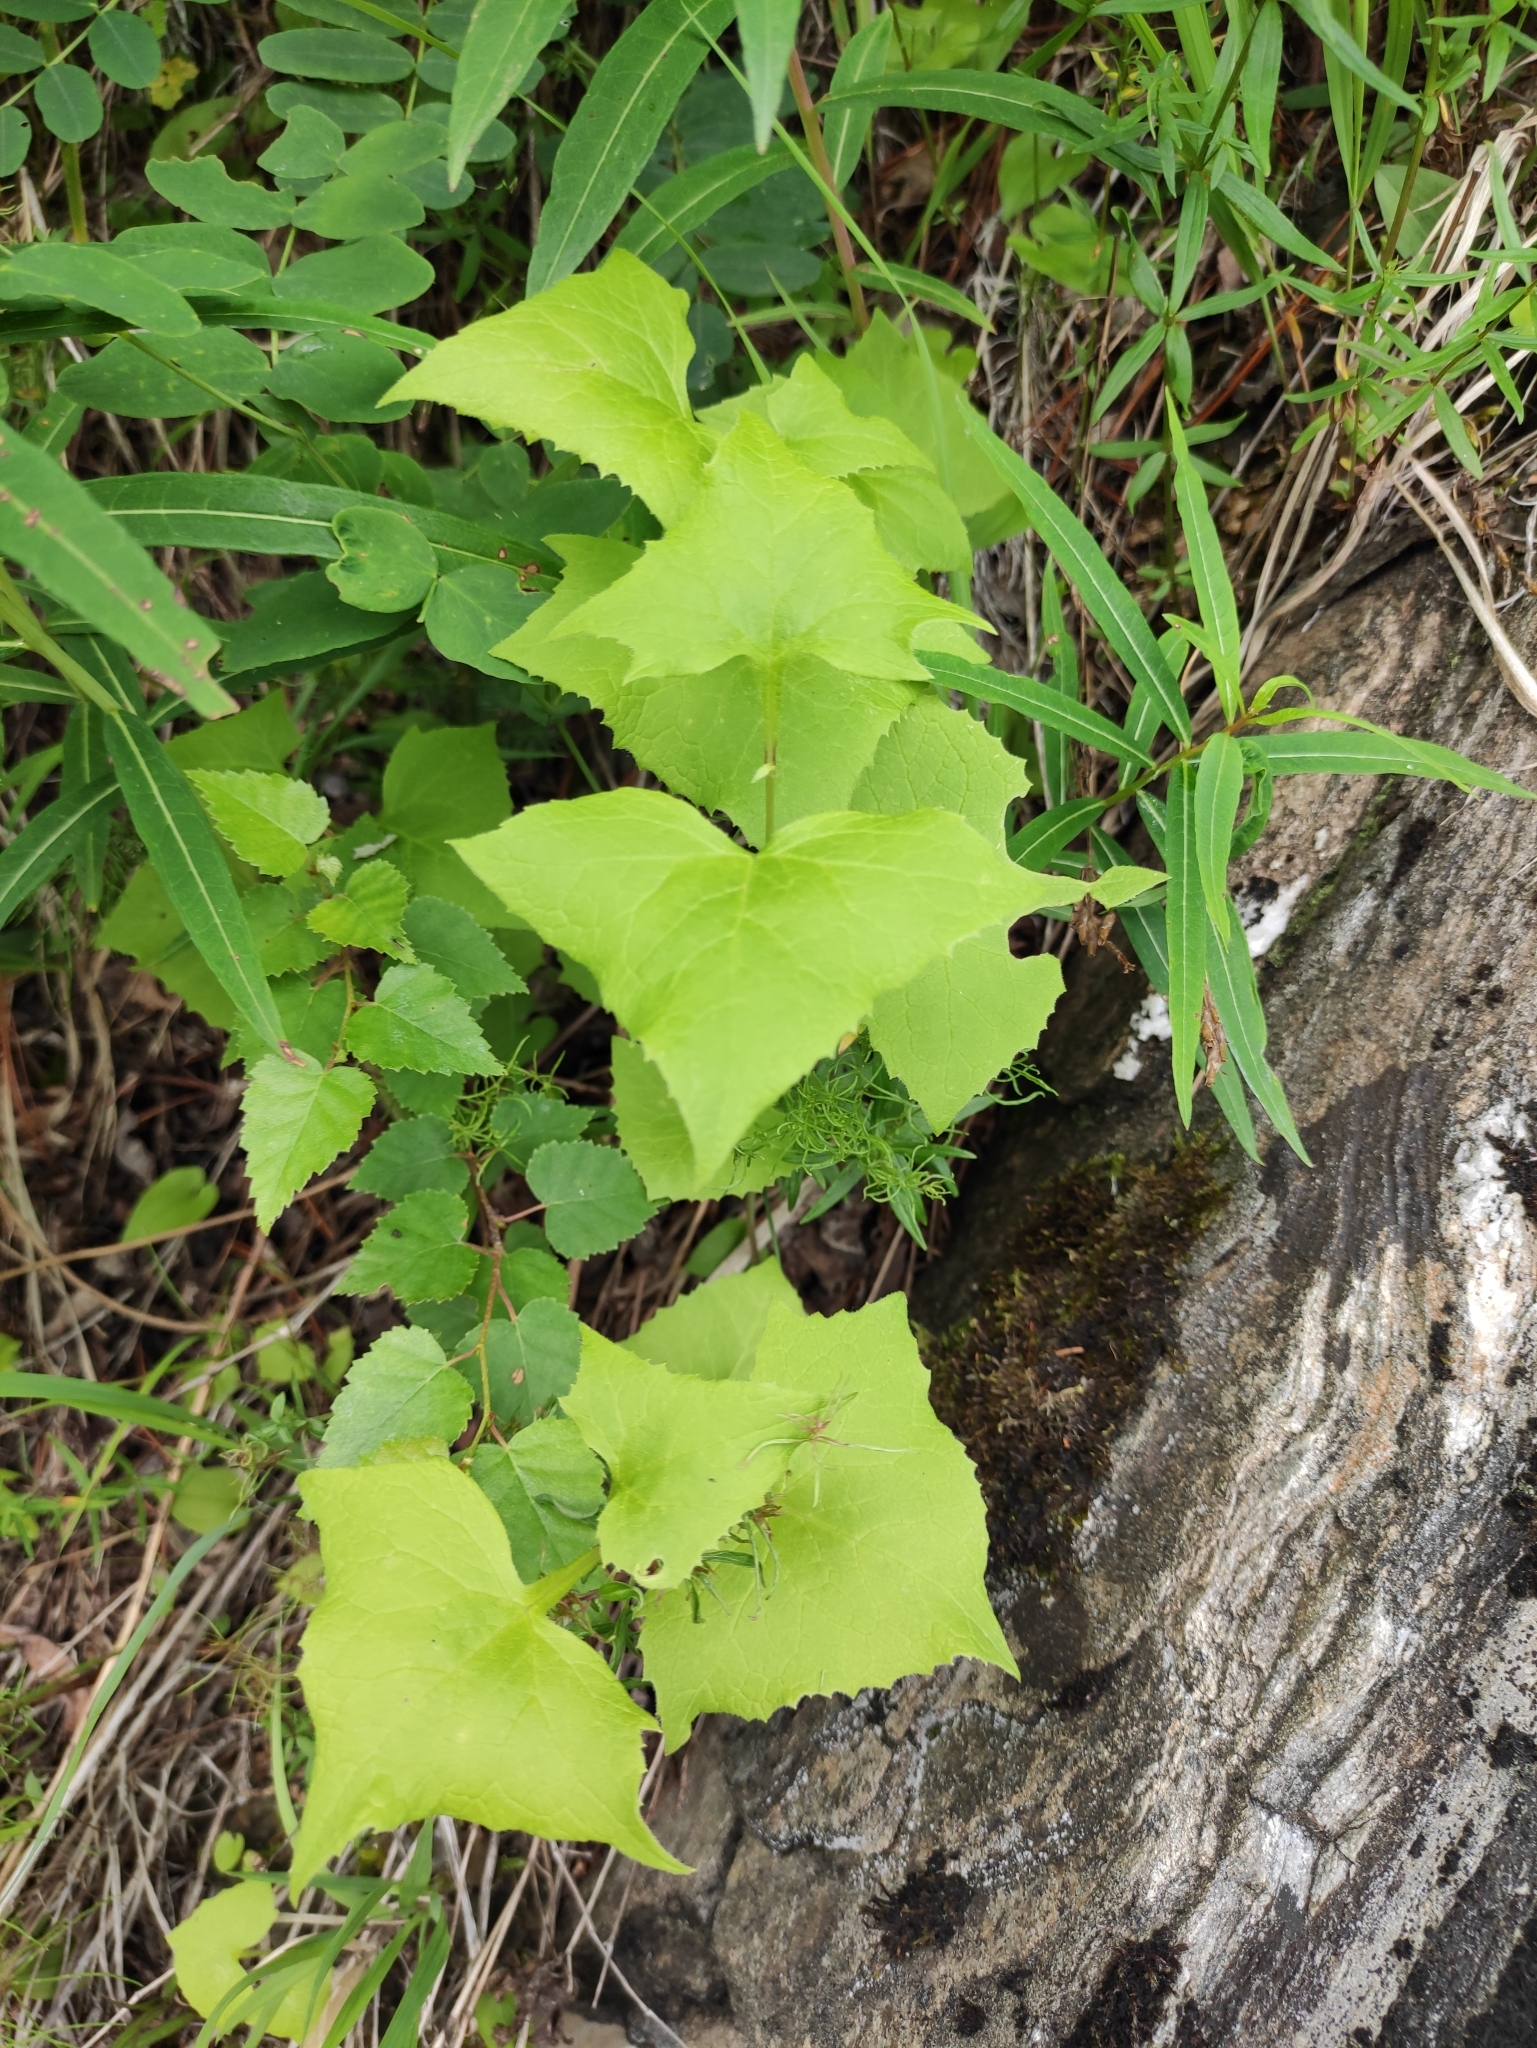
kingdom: Plantae
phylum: Tracheophyta
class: Magnoliopsida
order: Asterales
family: Asteraceae
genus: Parasenecio
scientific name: Parasenecio hastatus
